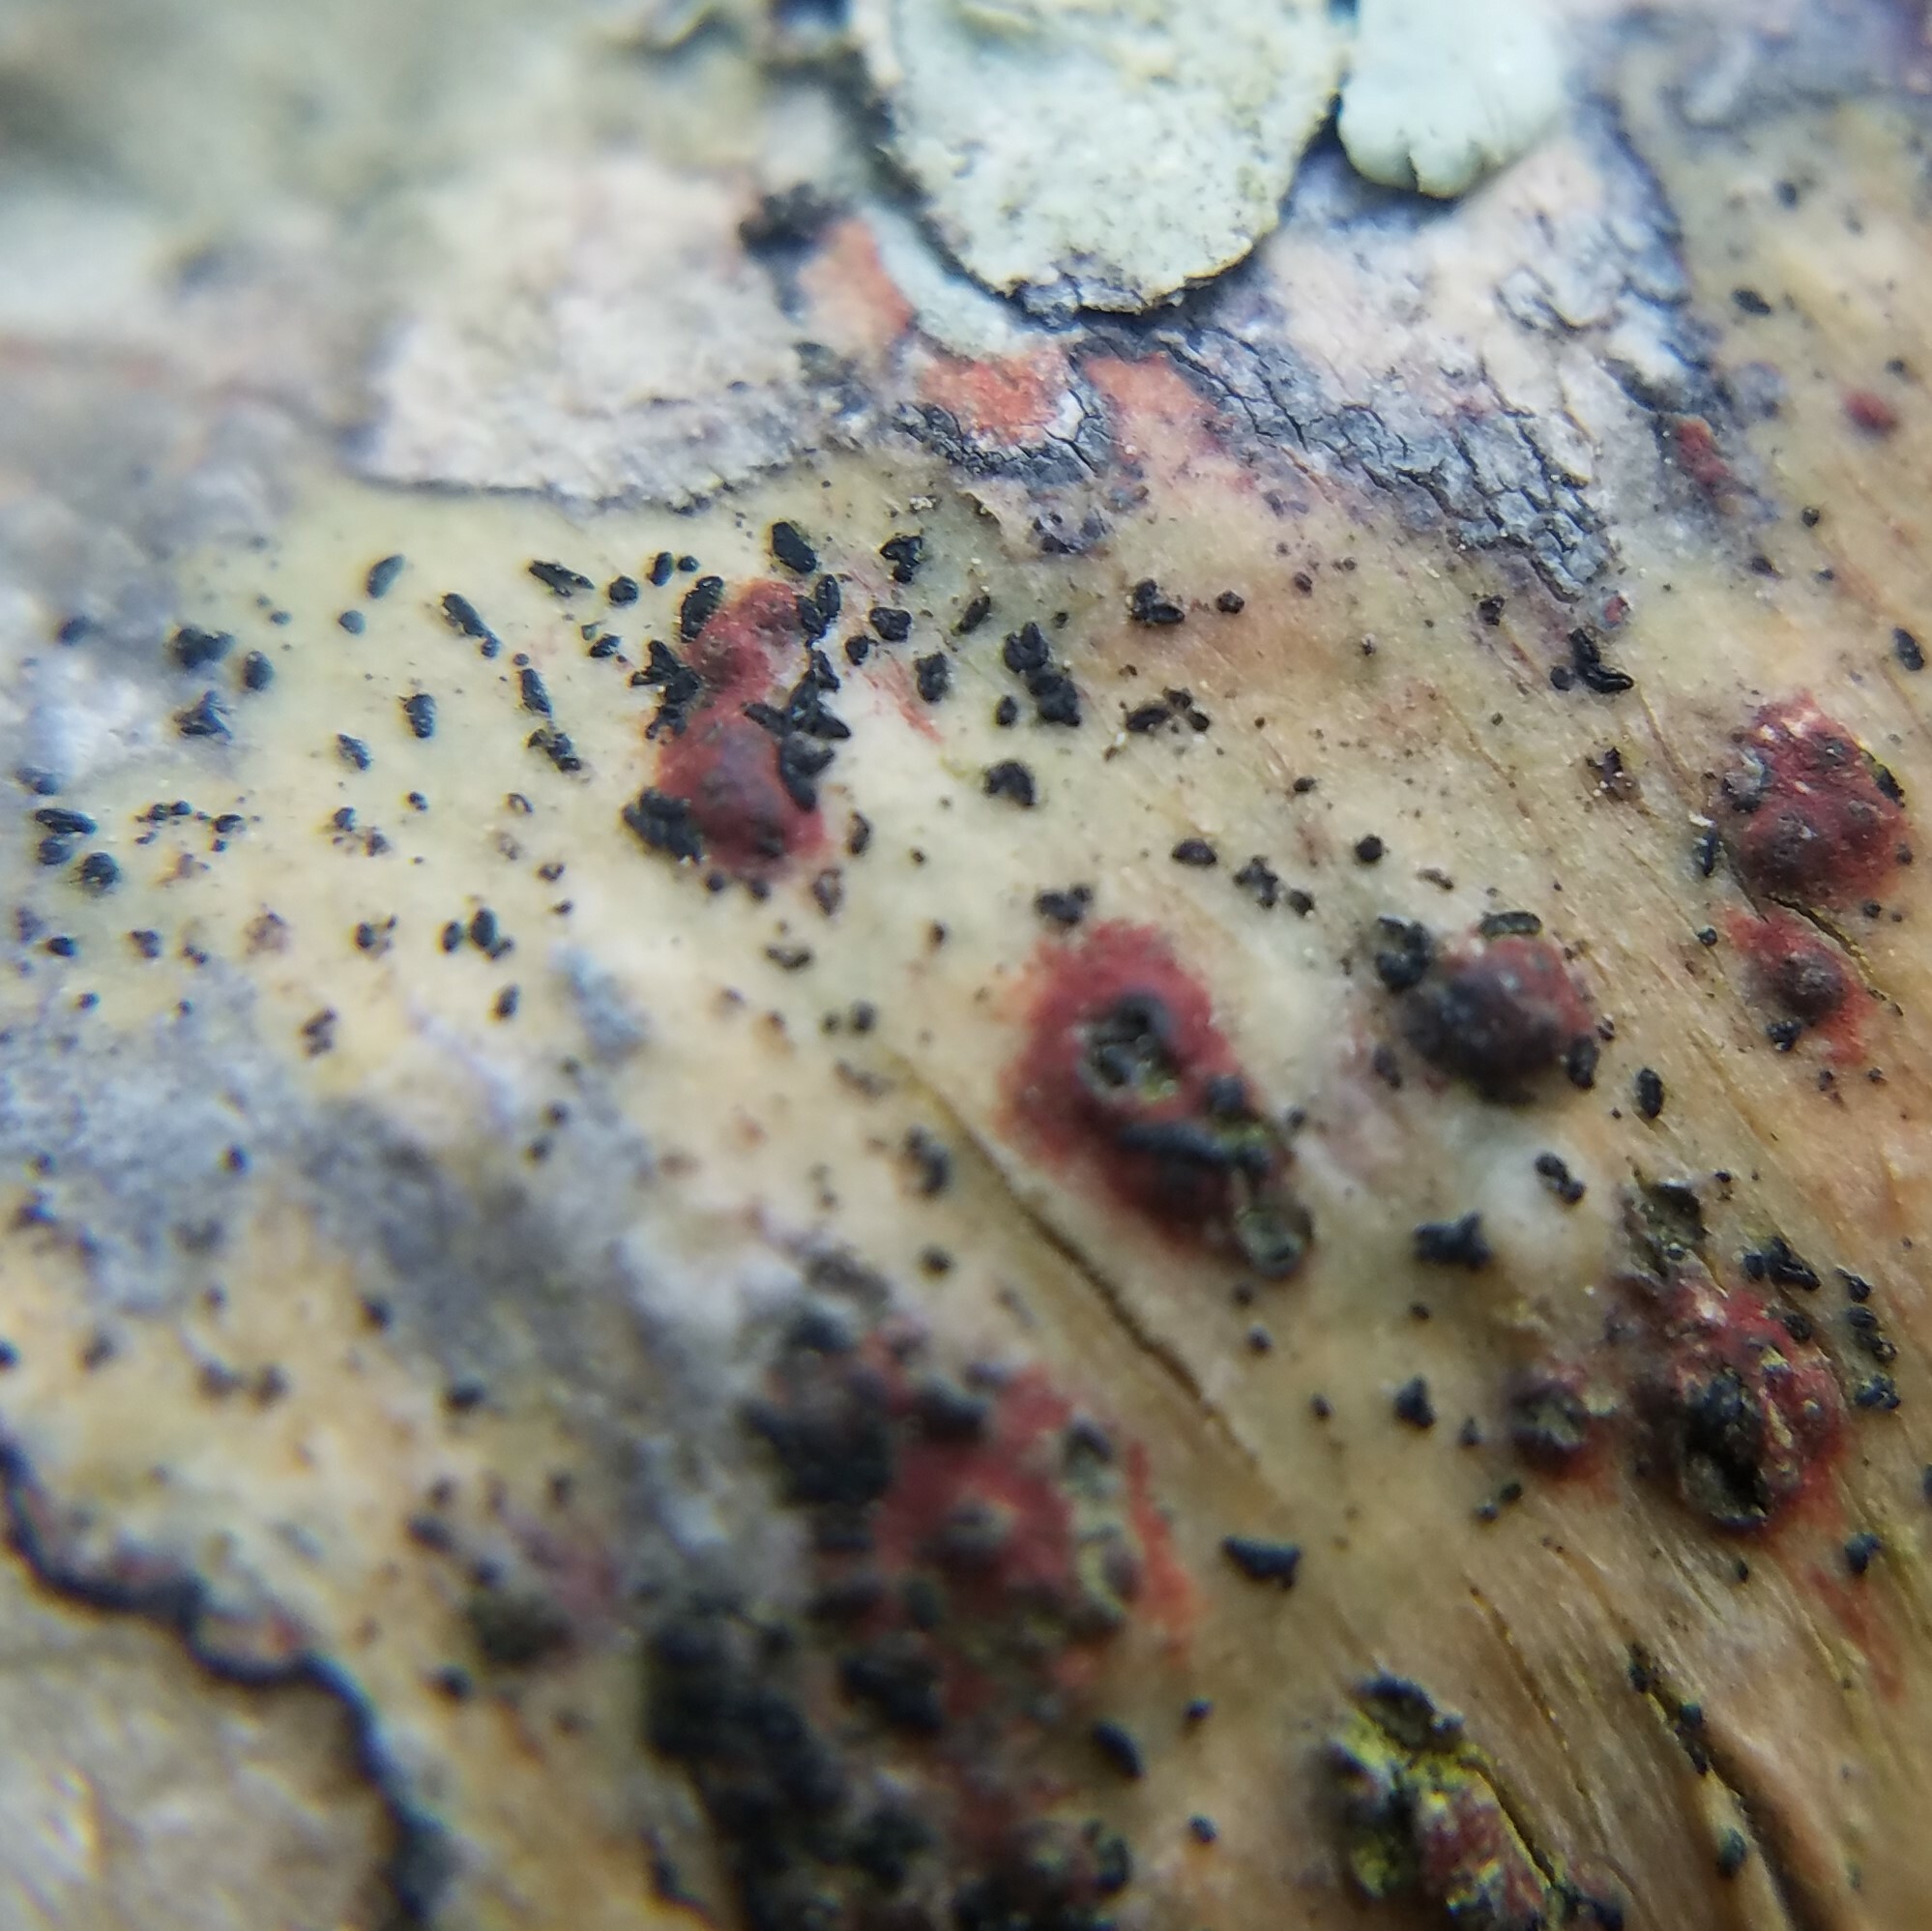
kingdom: Fungi
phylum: Ascomycota
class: Dothideomycetes
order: Eremithallales
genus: Melanographa
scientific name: Melanographa
